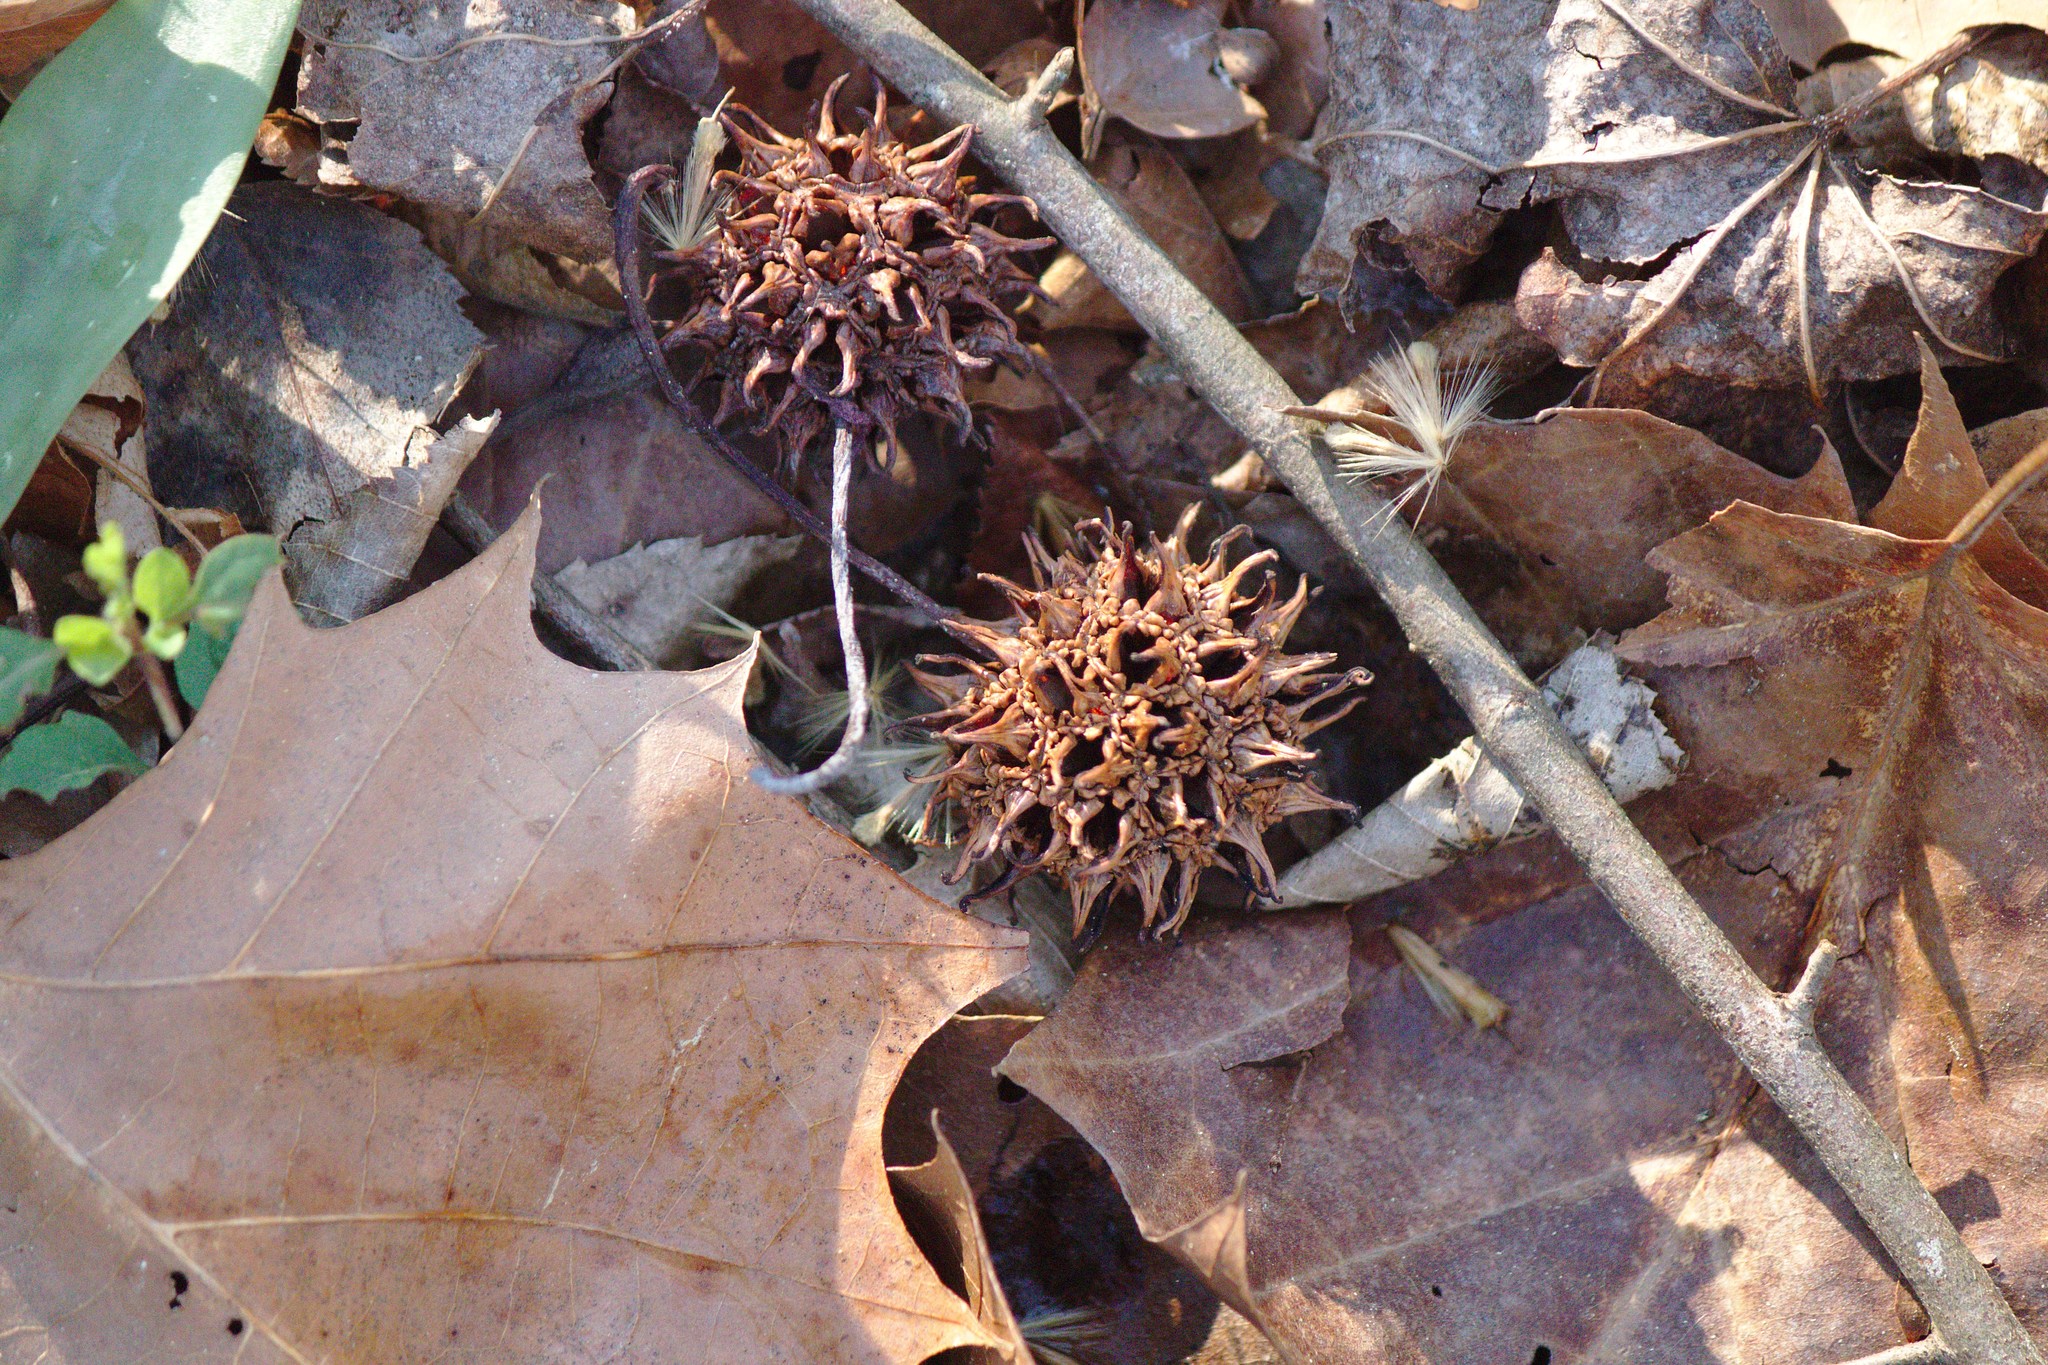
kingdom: Plantae
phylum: Tracheophyta
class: Magnoliopsida
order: Saxifragales
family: Altingiaceae
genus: Liquidambar
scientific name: Liquidambar styraciflua
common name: Sweet gum
